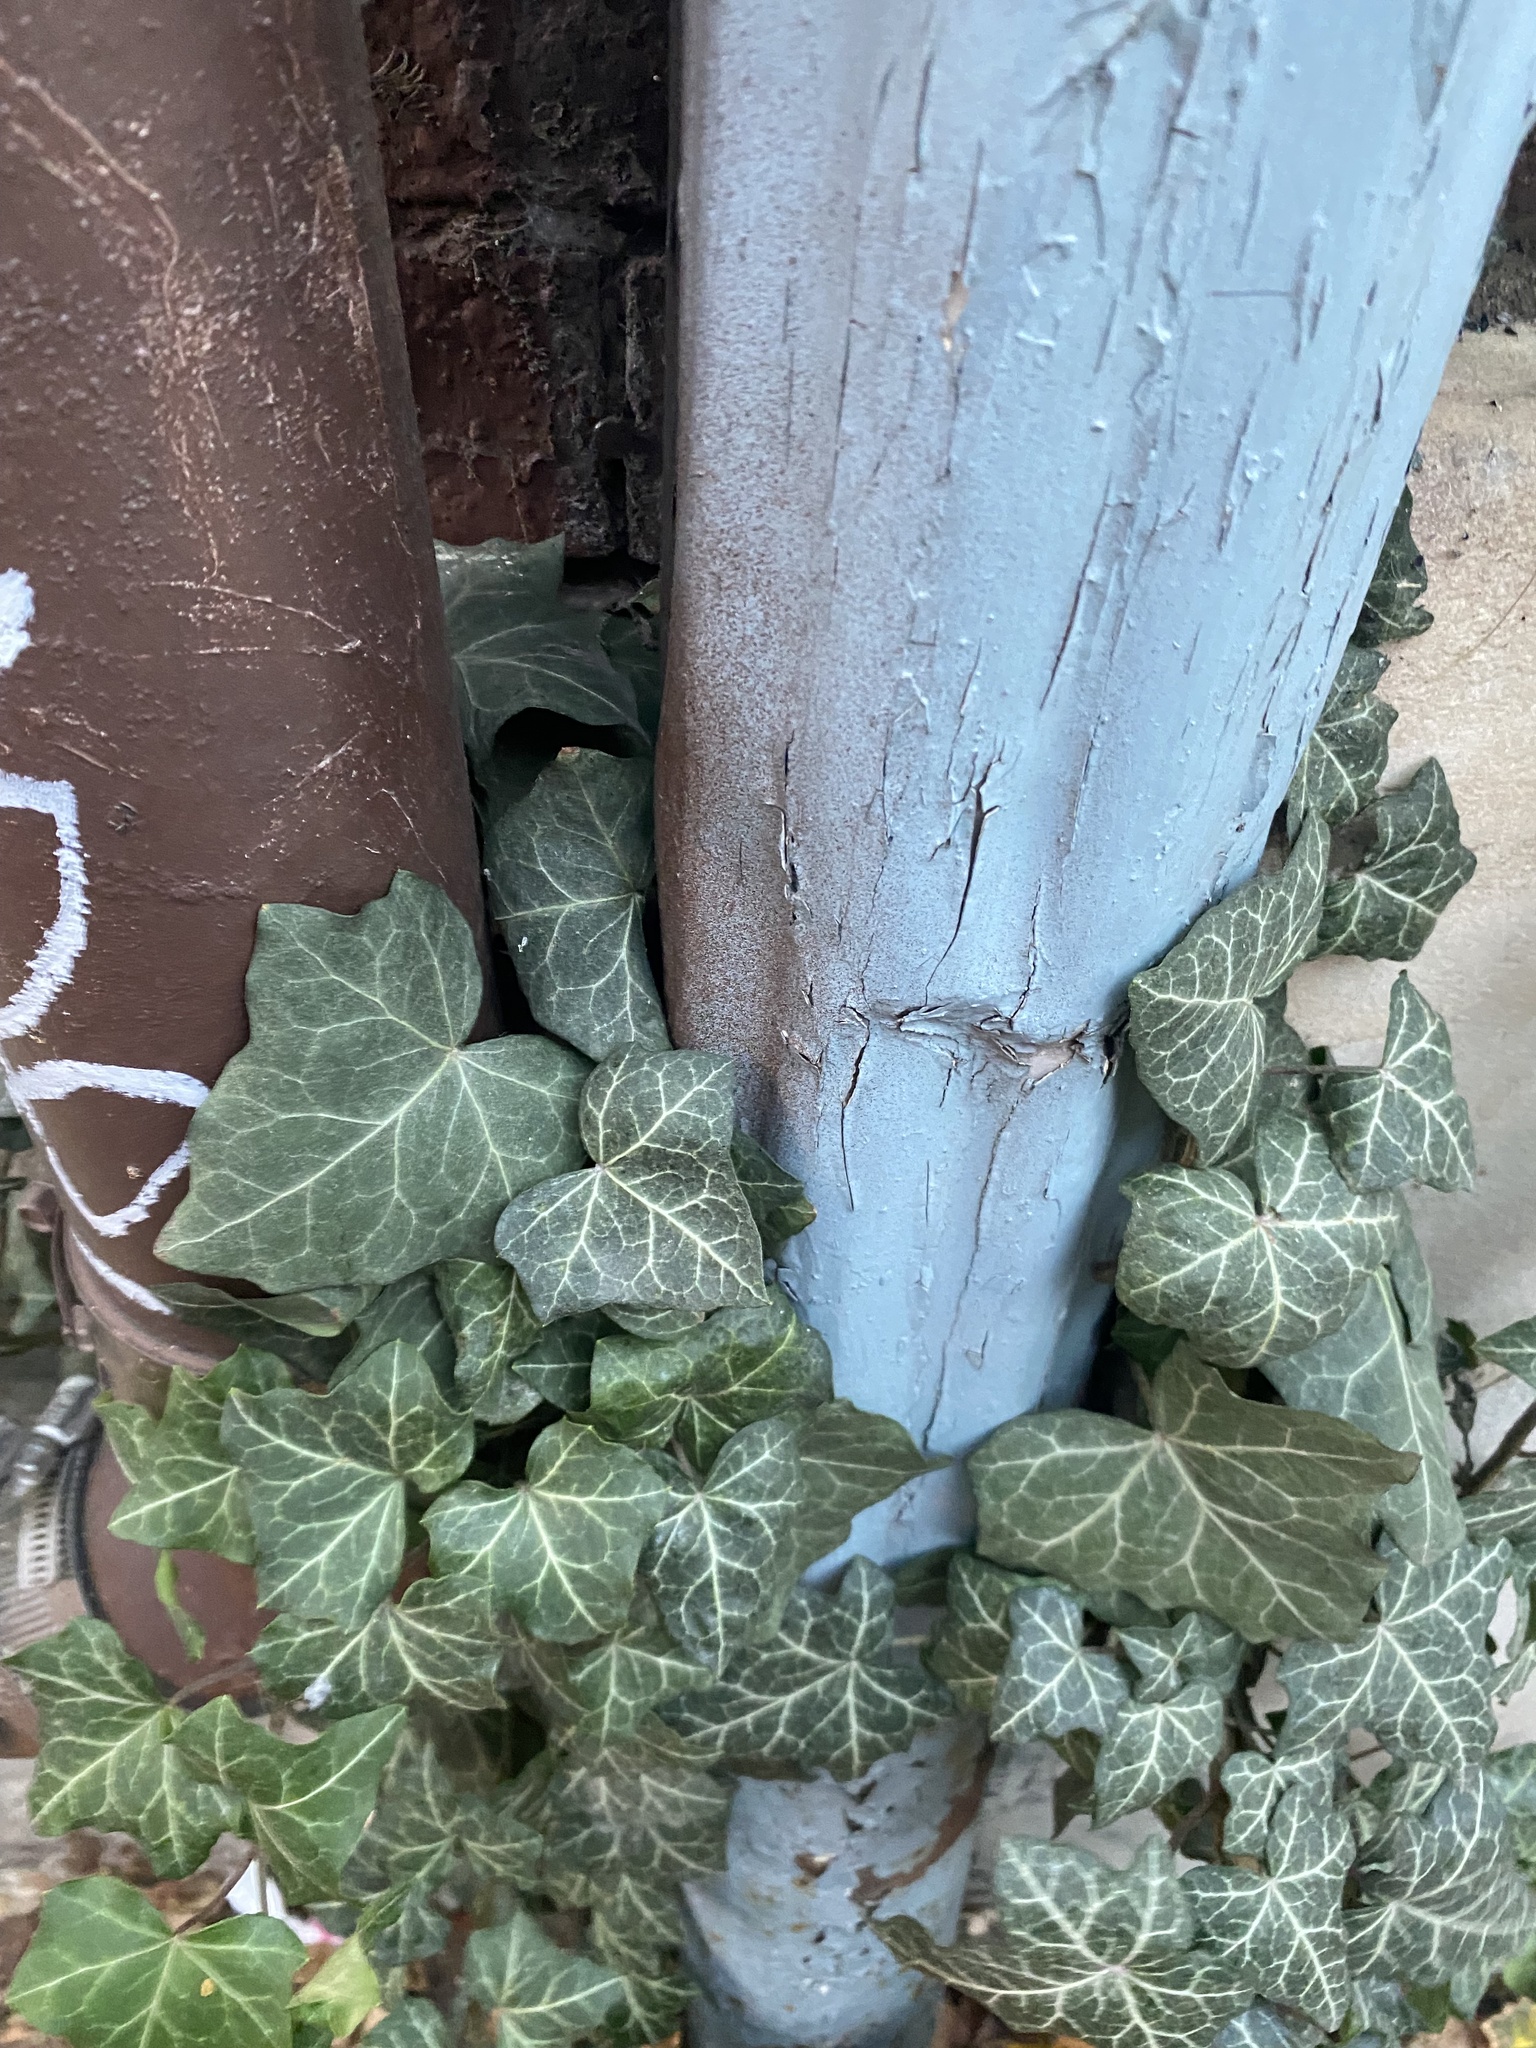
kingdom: Plantae
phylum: Tracheophyta
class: Magnoliopsida
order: Apiales
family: Araliaceae
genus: Hedera
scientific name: Hedera helix
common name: Ivy
